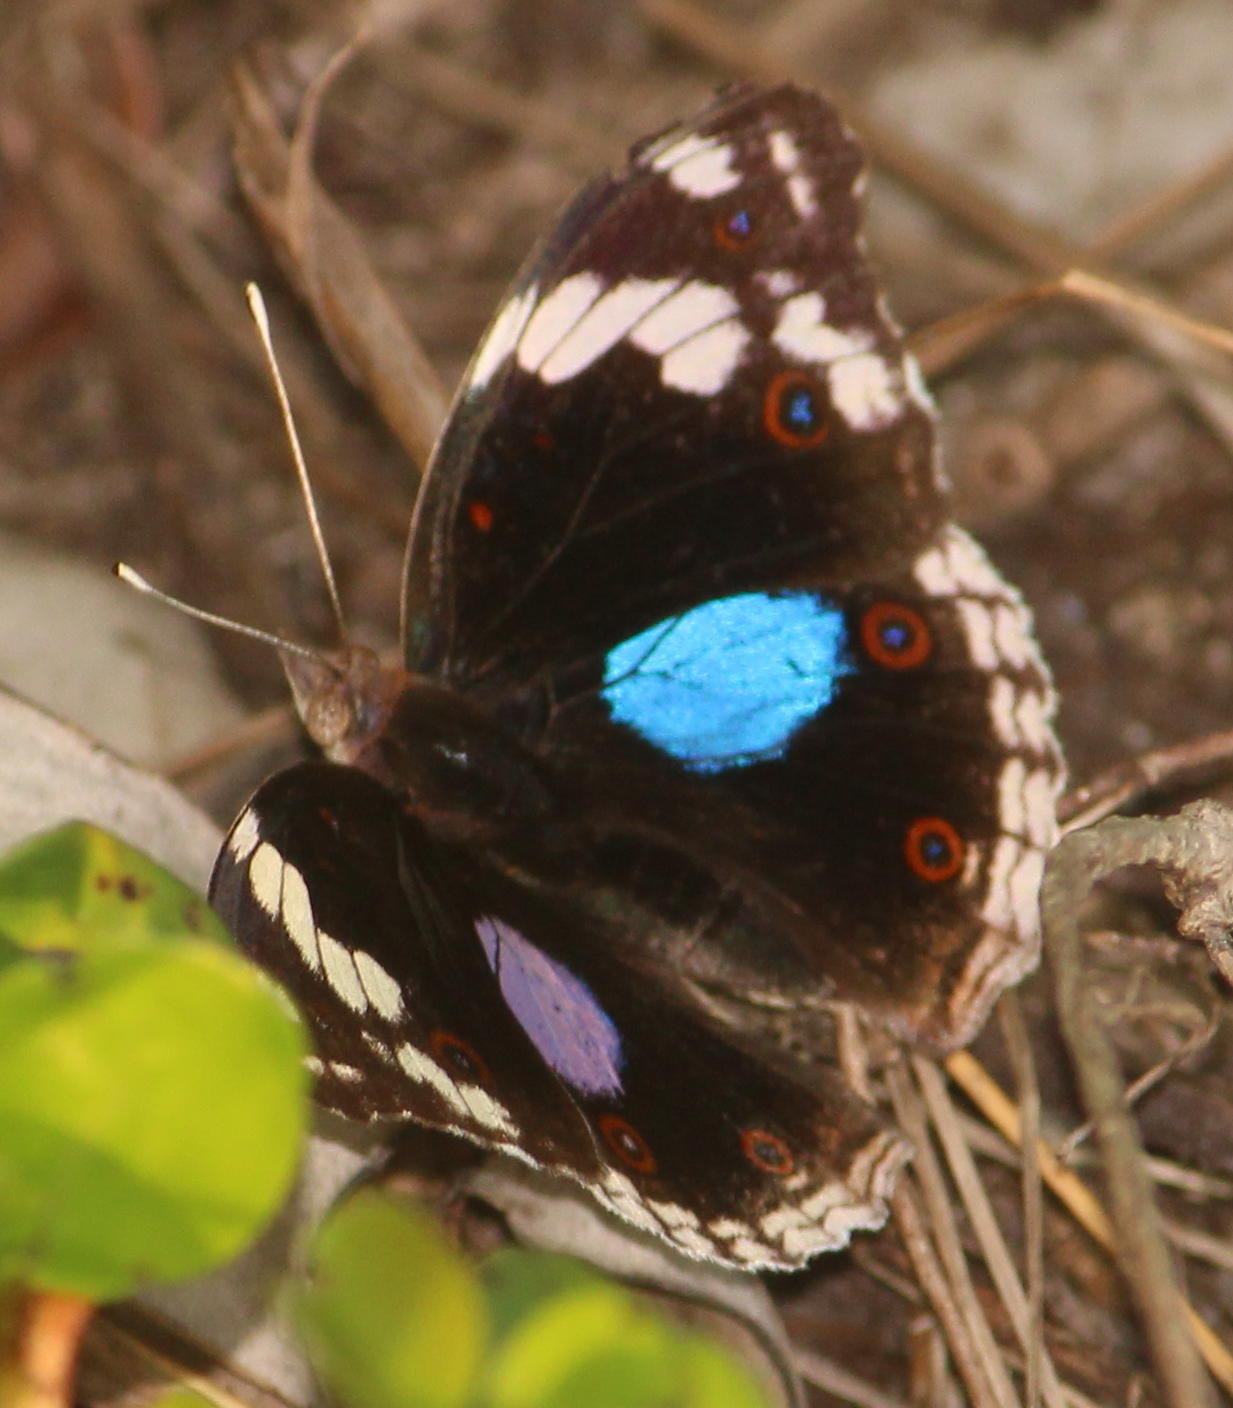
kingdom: Animalia
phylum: Arthropoda
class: Insecta
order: Lepidoptera
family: Nymphalidae
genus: Junonia
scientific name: Junonia oenone
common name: Dark blue pansy
